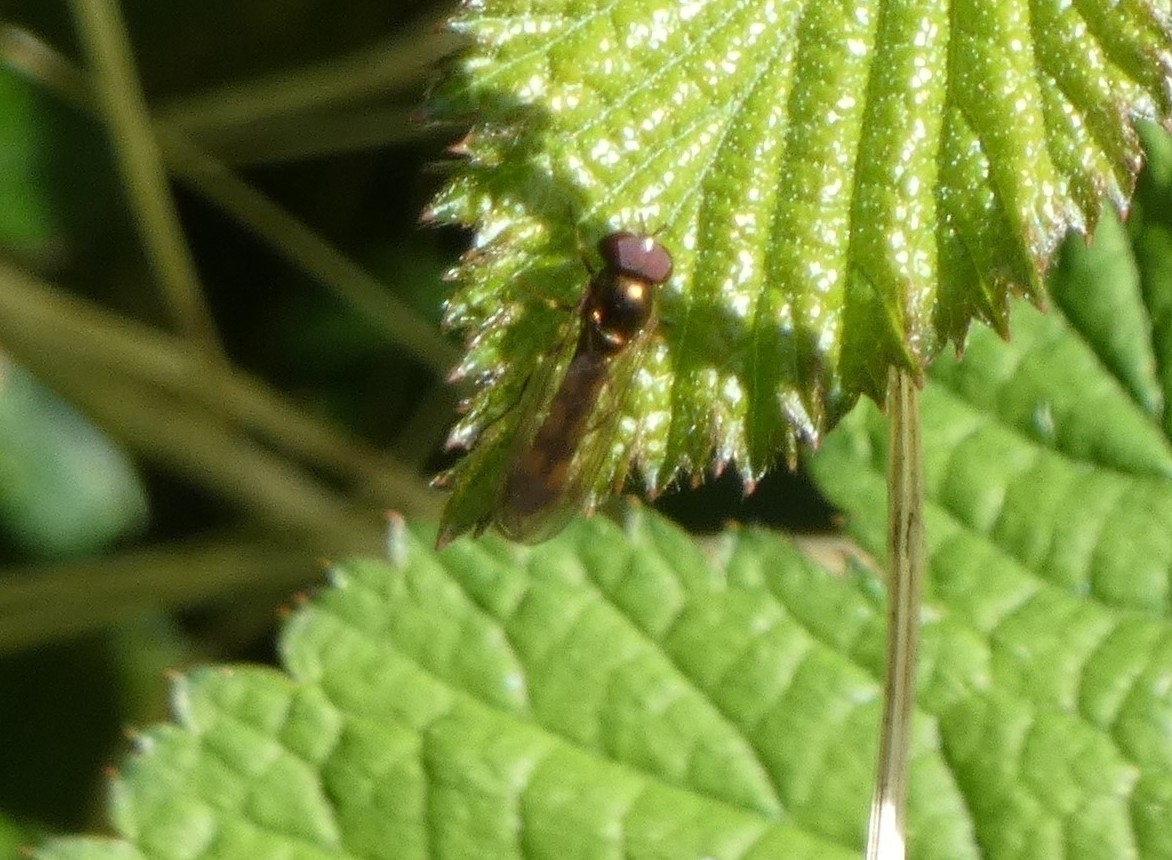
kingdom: Animalia
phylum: Arthropoda
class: Insecta
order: Diptera
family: Syrphidae
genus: Melanostoma
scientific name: Melanostoma scalare
